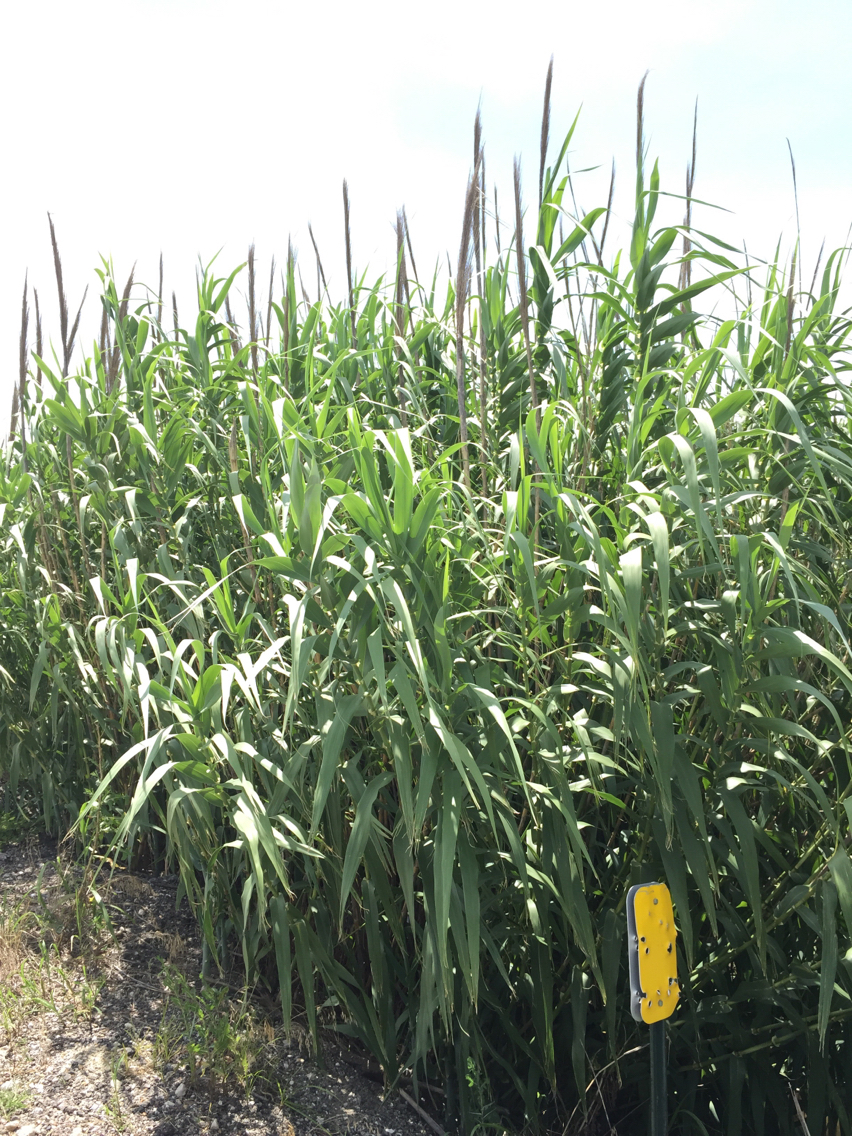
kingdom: Plantae
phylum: Tracheophyta
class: Liliopsida
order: Poales
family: Poaceae
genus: Arundo
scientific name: Arundo donax
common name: Giant reed
